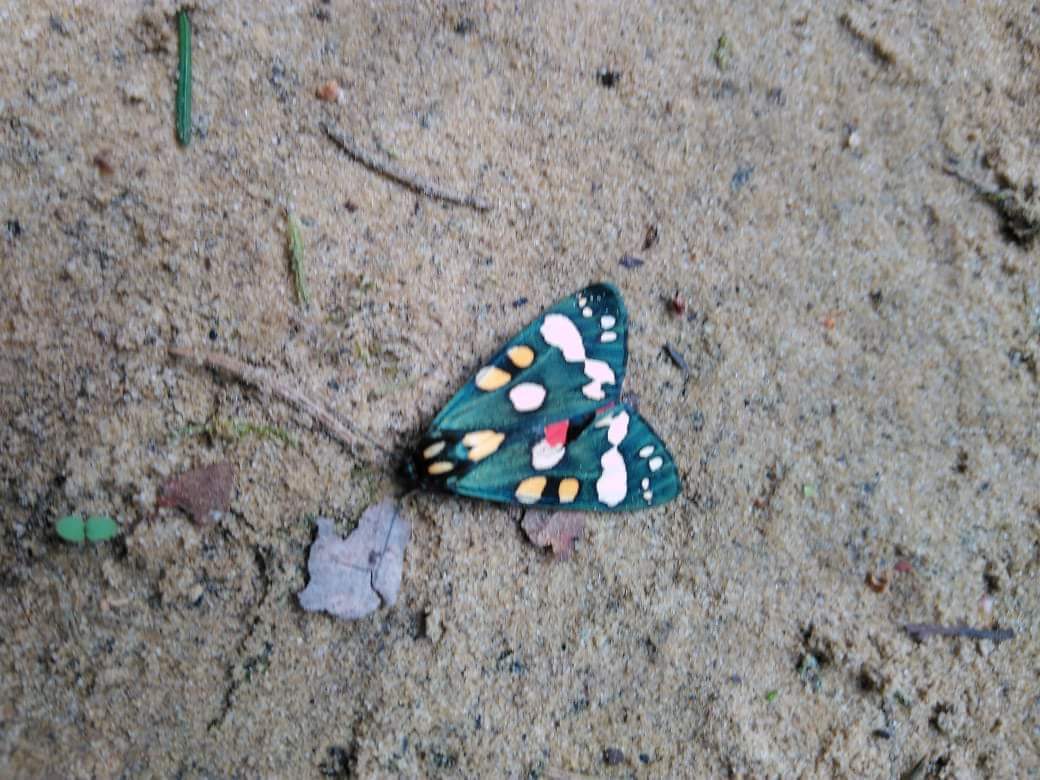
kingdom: Animalia
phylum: Arthropoda
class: Insecta
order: Lepidoptera
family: Erebidae
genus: Callimorpha
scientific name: Callimorpha dominula
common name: Scarlet tiger
